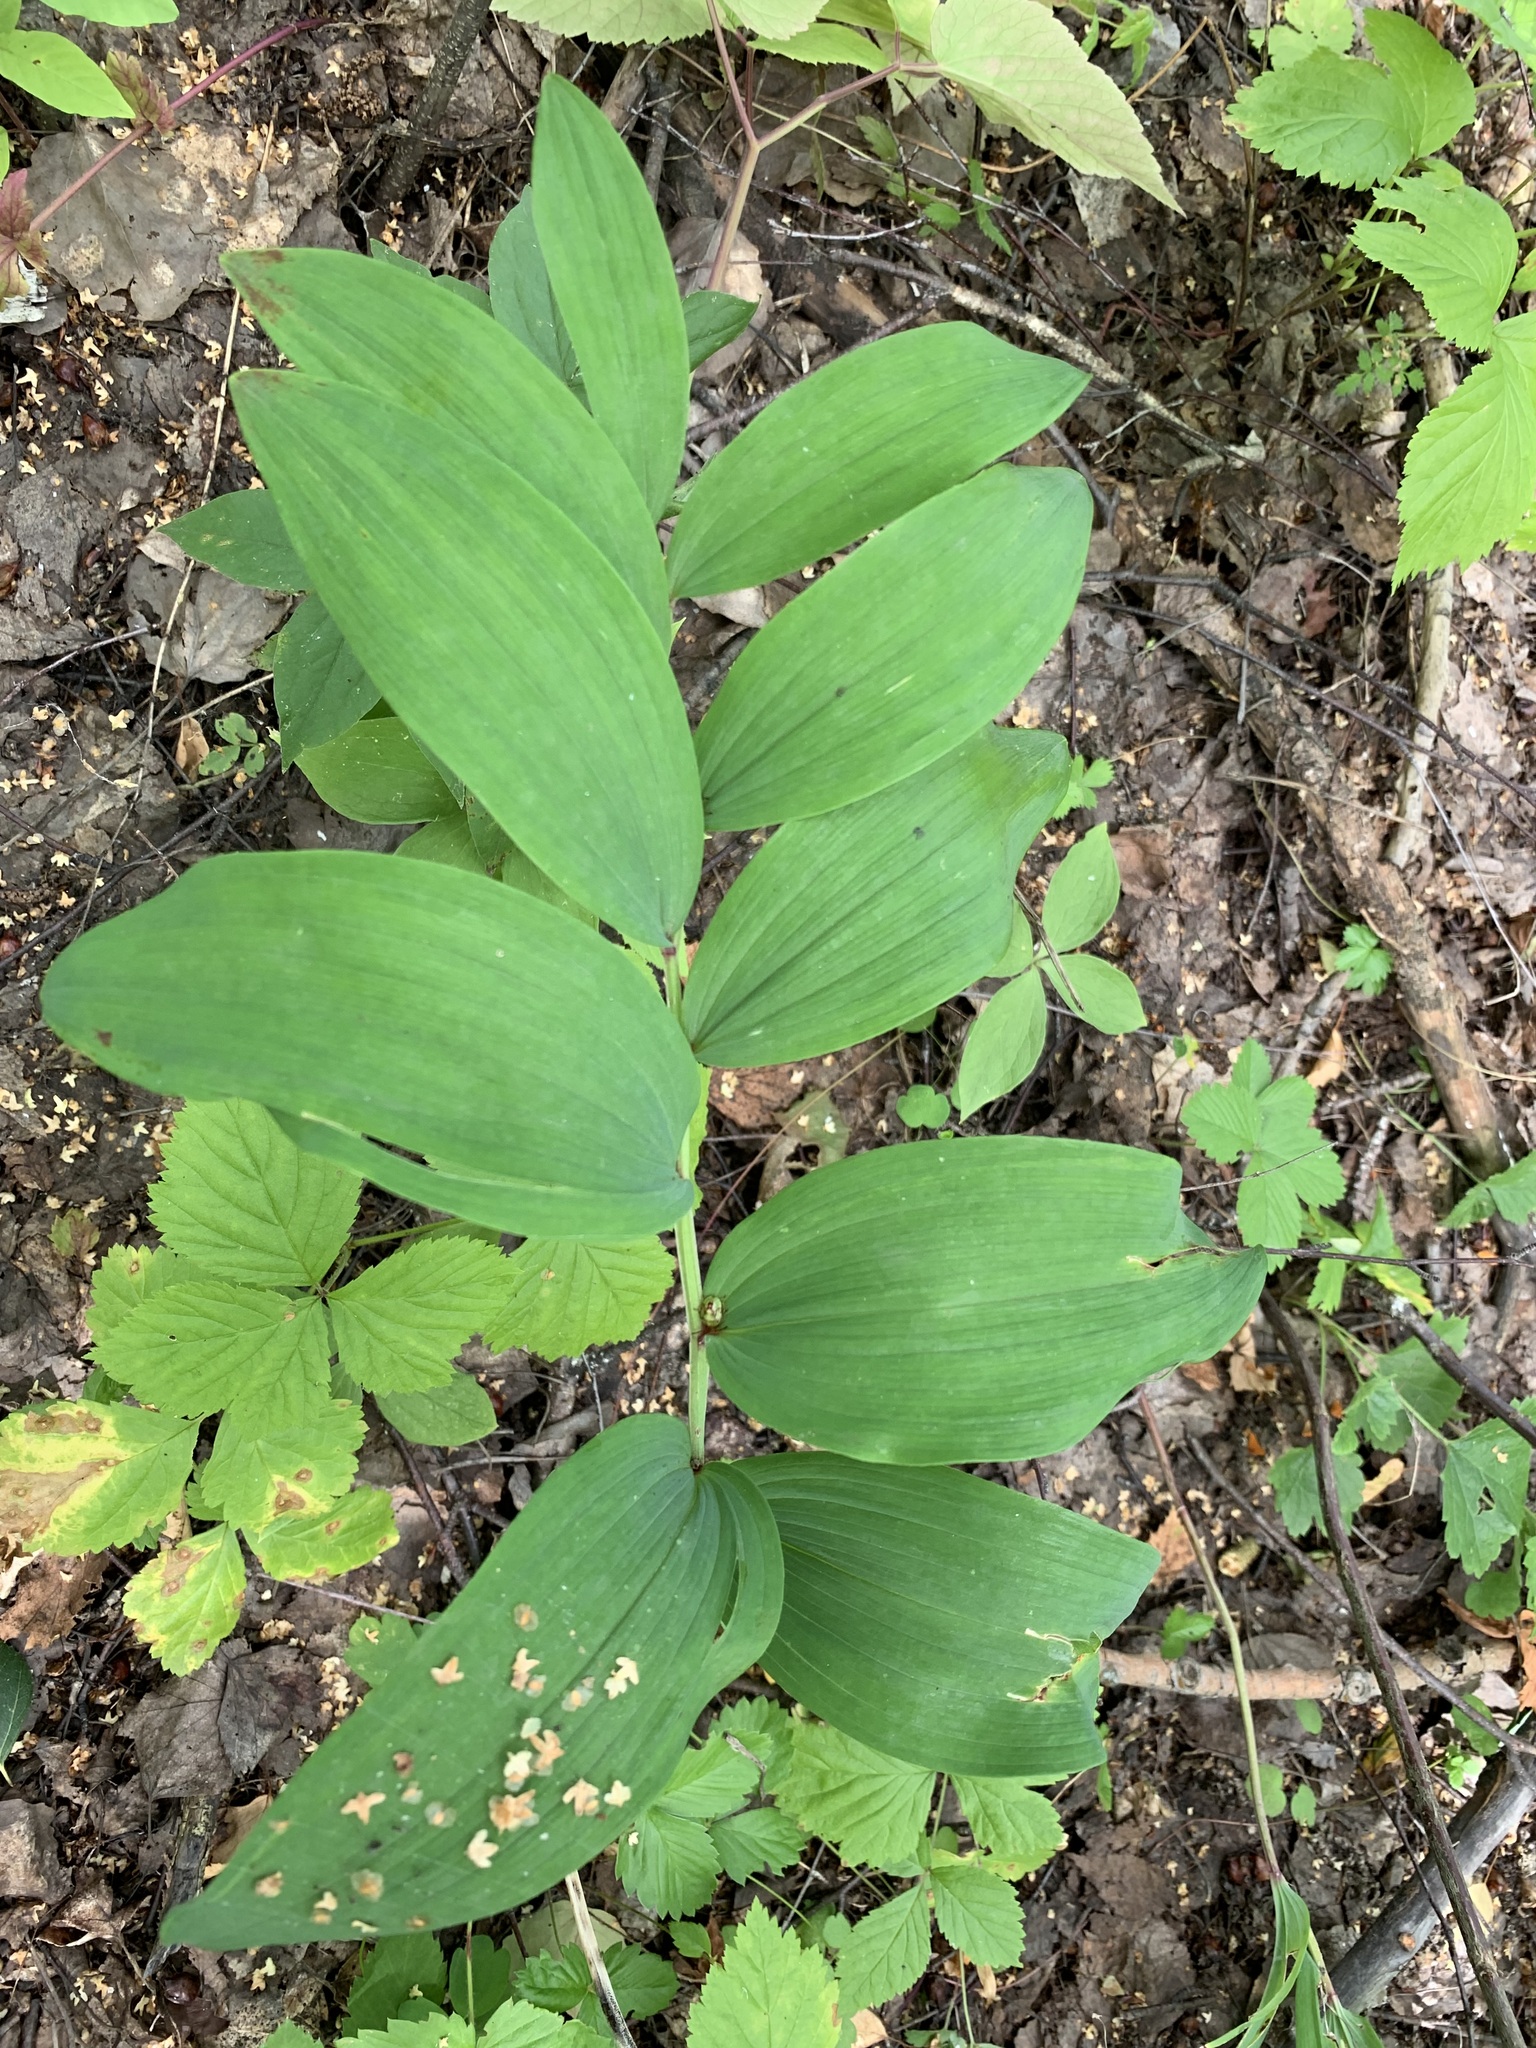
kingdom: Plantae
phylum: Tracheophyta
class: Liliopsida
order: Asparagales
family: Asparagaceae
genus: Polygonatum
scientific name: Polygonatum odoratum
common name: Angular solomon's-seal
